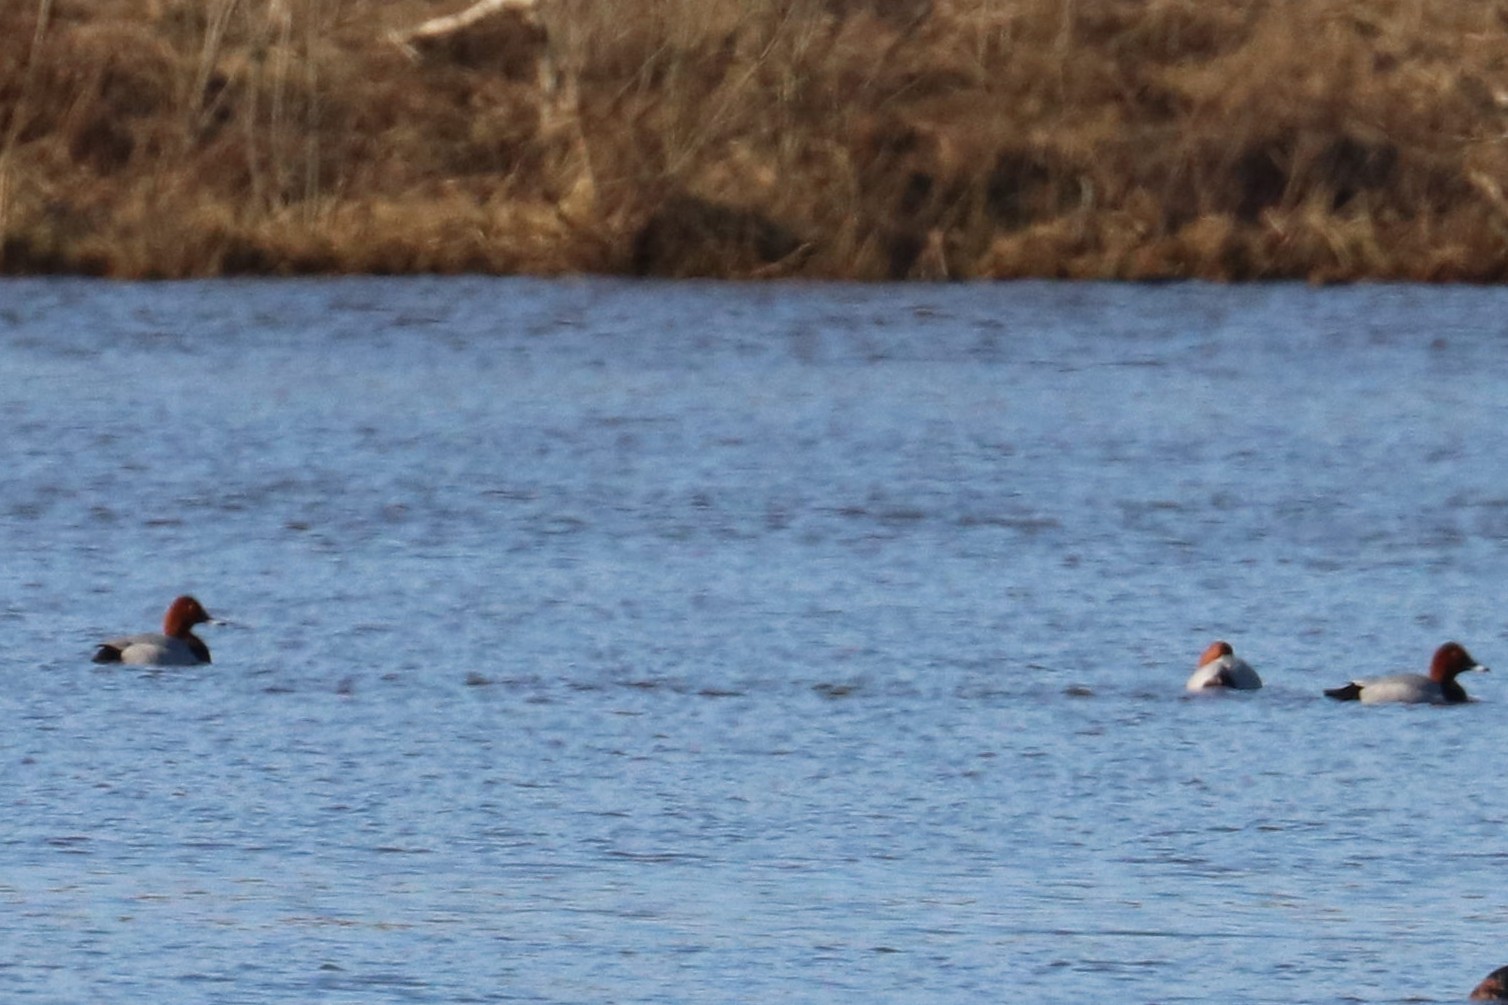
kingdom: Animalia
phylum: Chordata
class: Aves
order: Anseriformes
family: Anatidae
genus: Aythya
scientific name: Aythya ferina
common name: Common pochard
